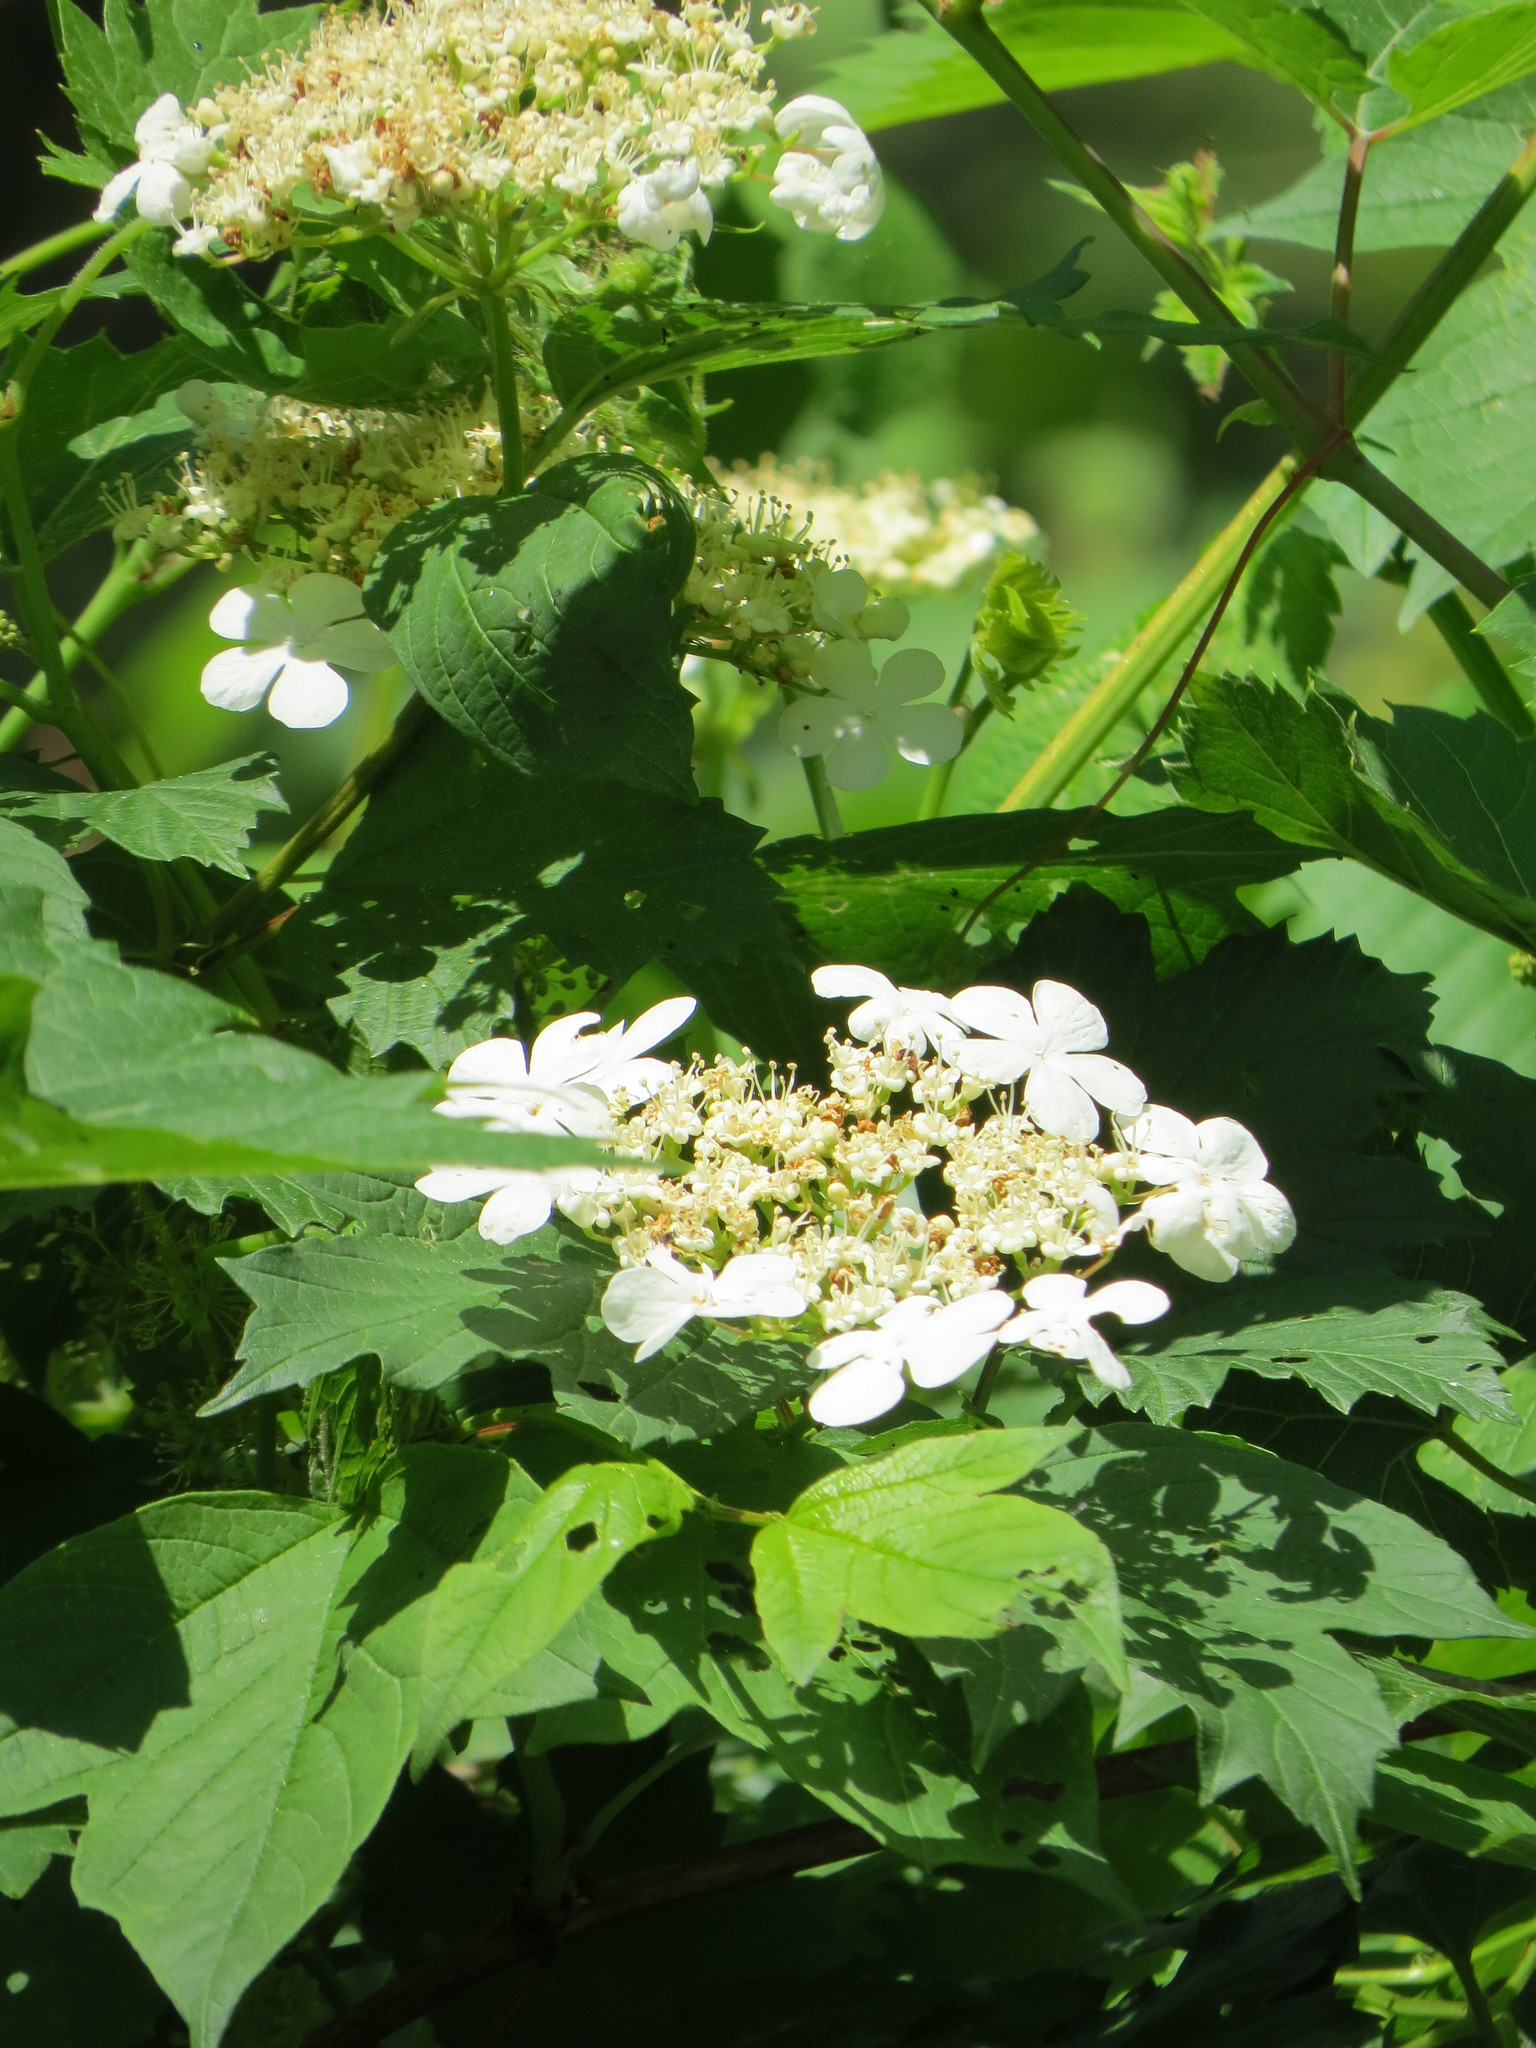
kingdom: Plantae
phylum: Tracheophyta
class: Magnoliopsida
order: Dipsacales
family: Viburnaceae
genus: Viburnum
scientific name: Viburnum opulus
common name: Guelder-rose
